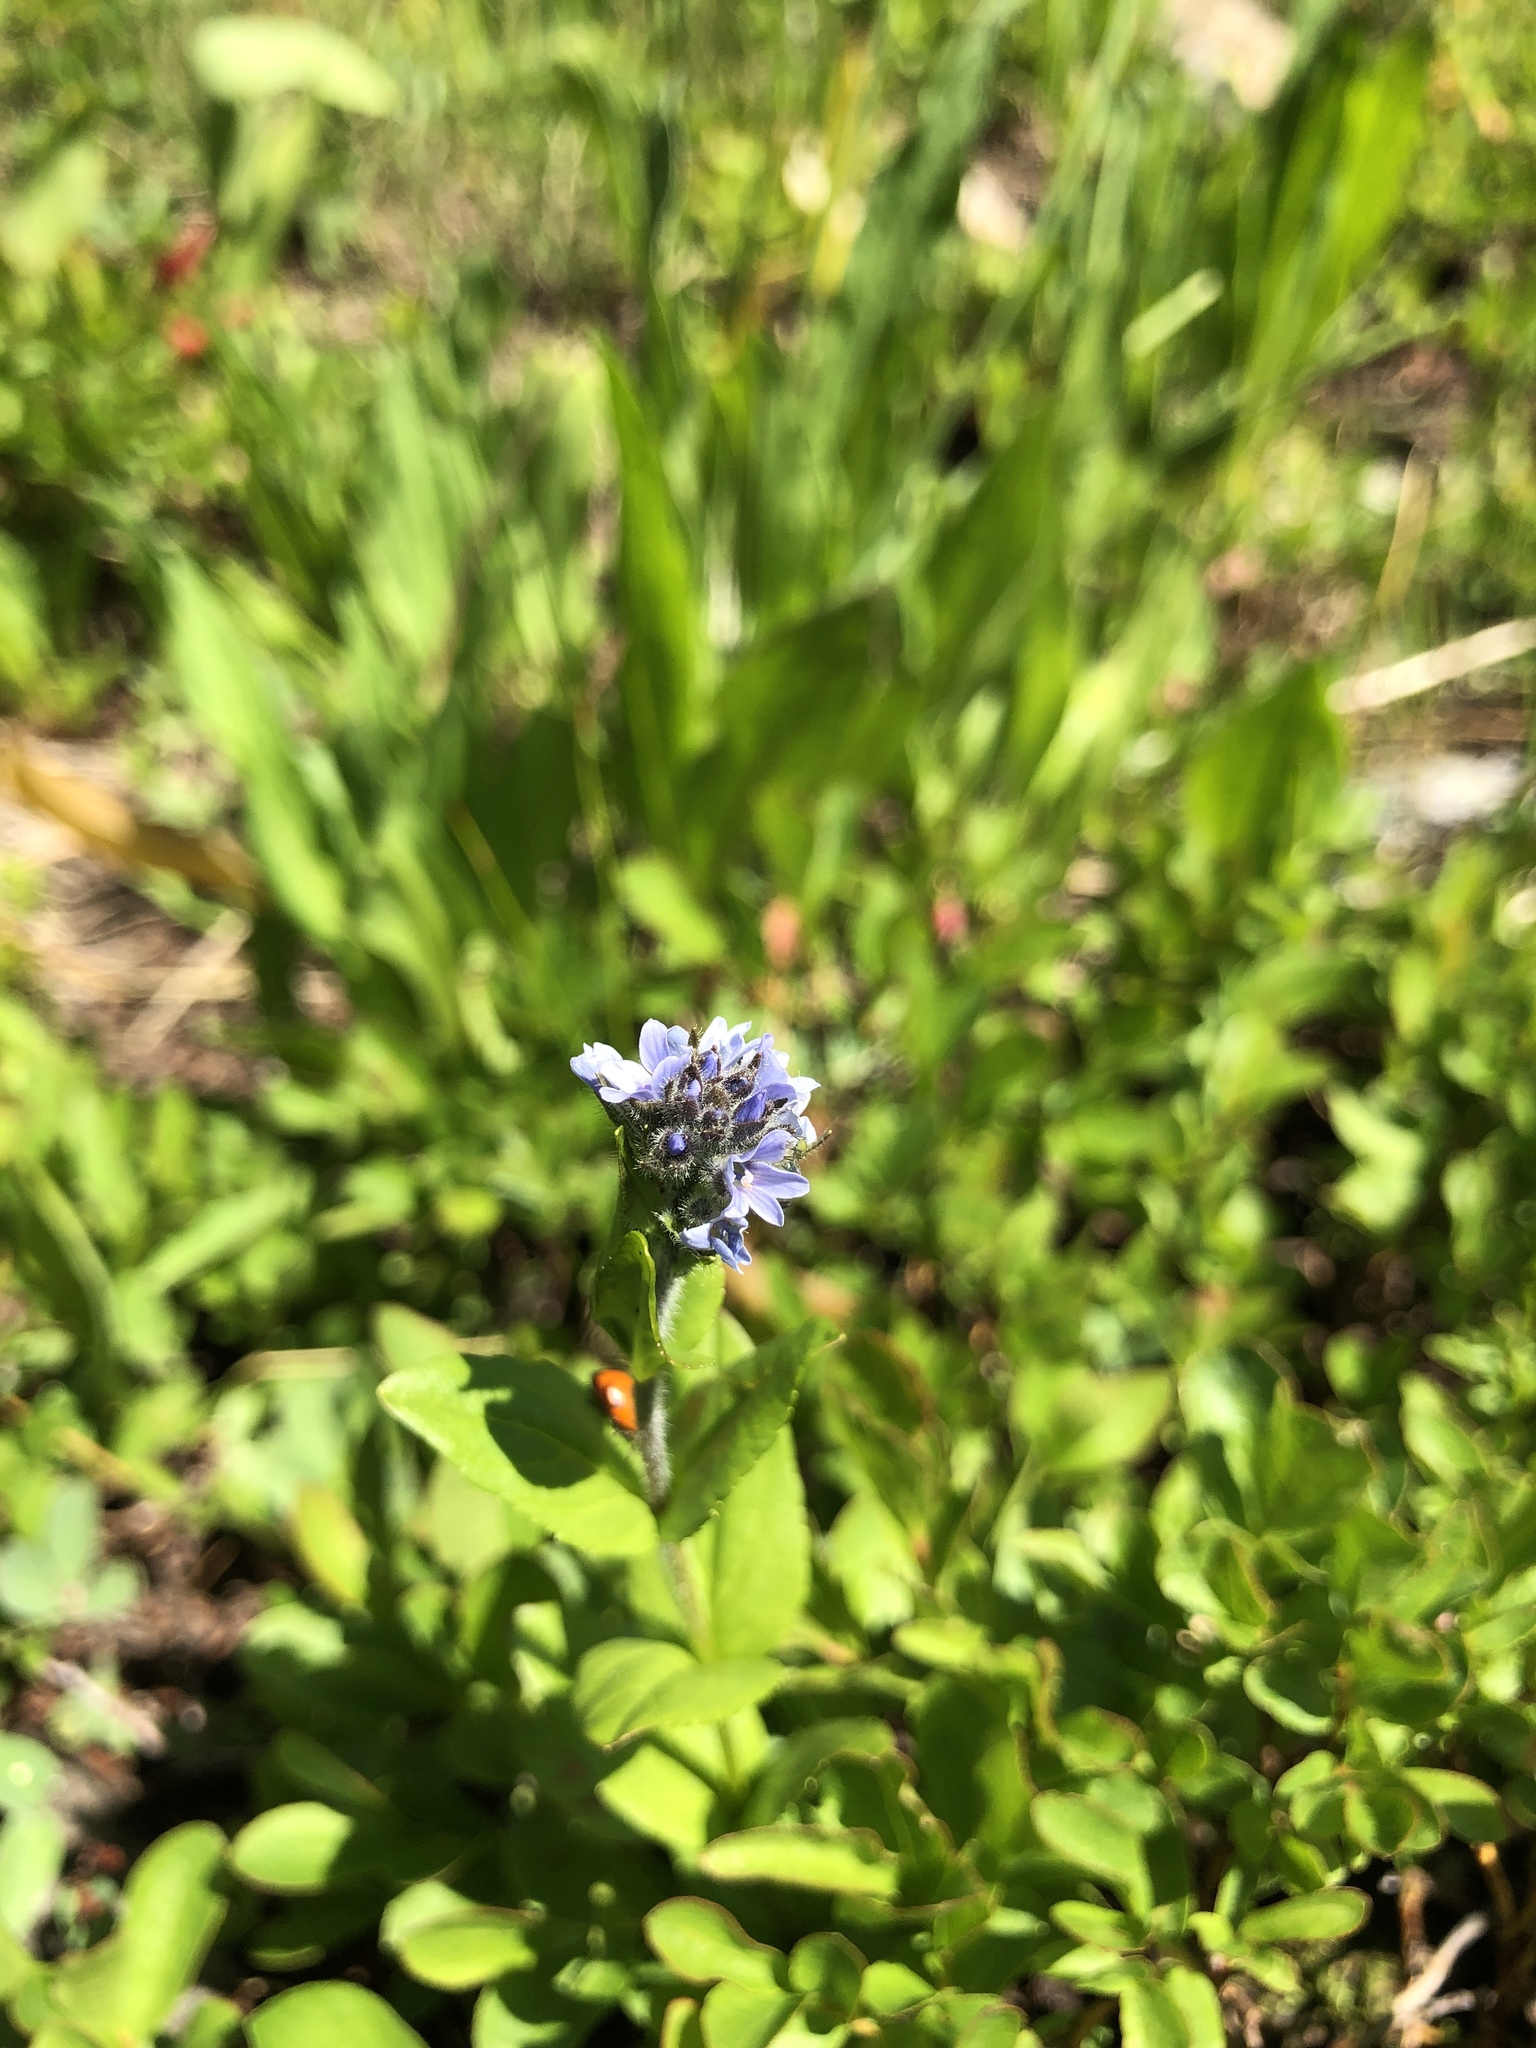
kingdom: Plantae
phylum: Tracheophyta
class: Magnoliopsida
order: Lamiales
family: Plantaginaceae
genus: Veronica
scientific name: Veronica wormskjoldii
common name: American alpine speedwell
